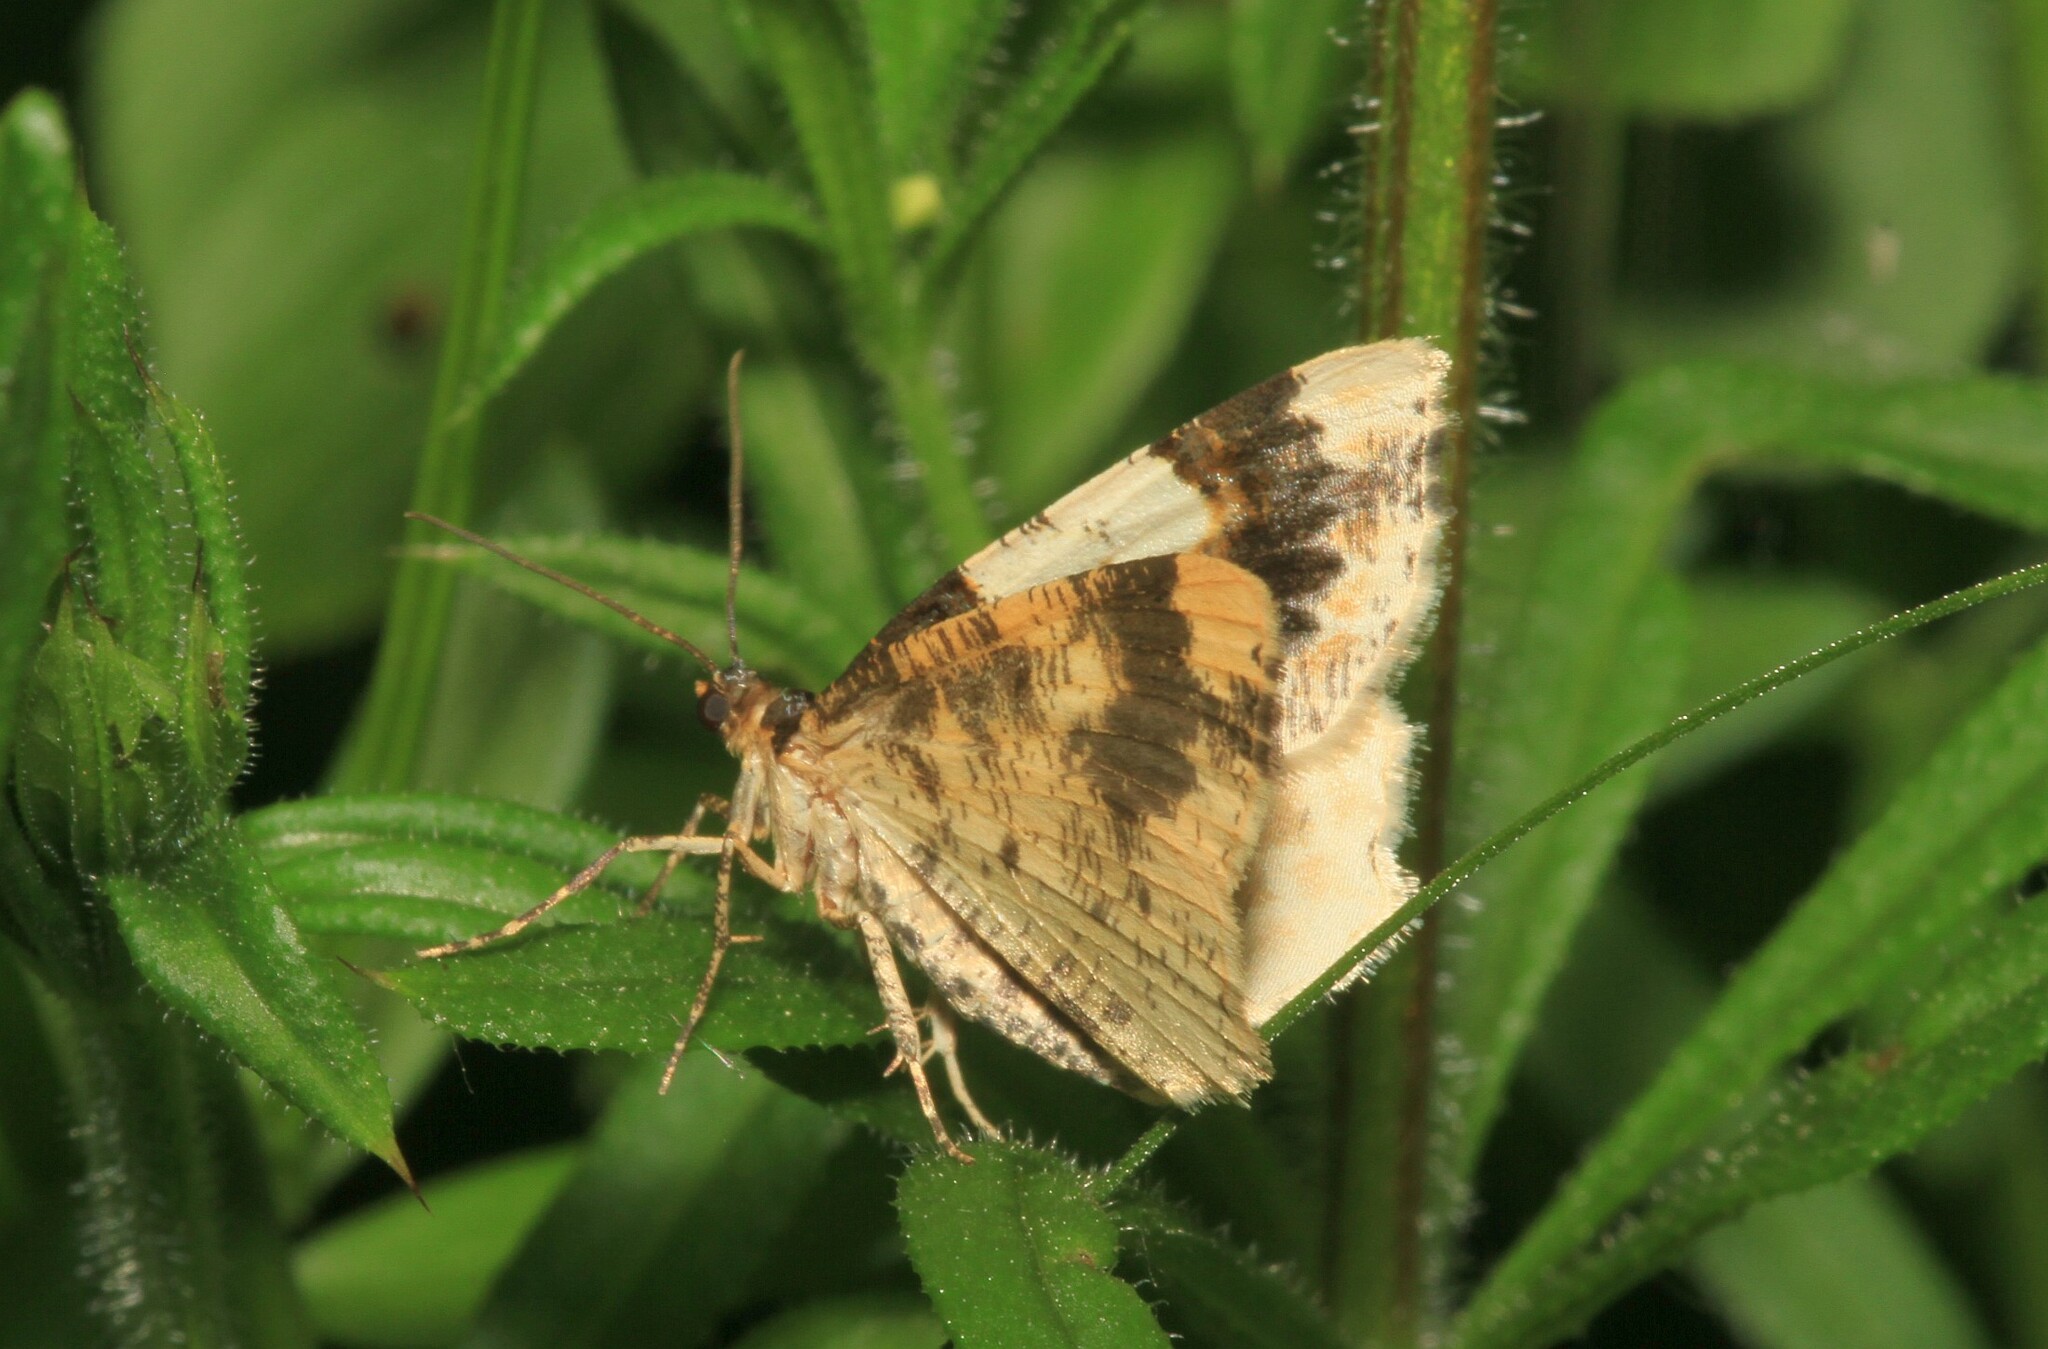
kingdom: Animalia
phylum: Arthropoda
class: Insecta
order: Lepidoptera
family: Geometridae
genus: Ligdia
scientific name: Ligdia adustata
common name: Scorched carpet
